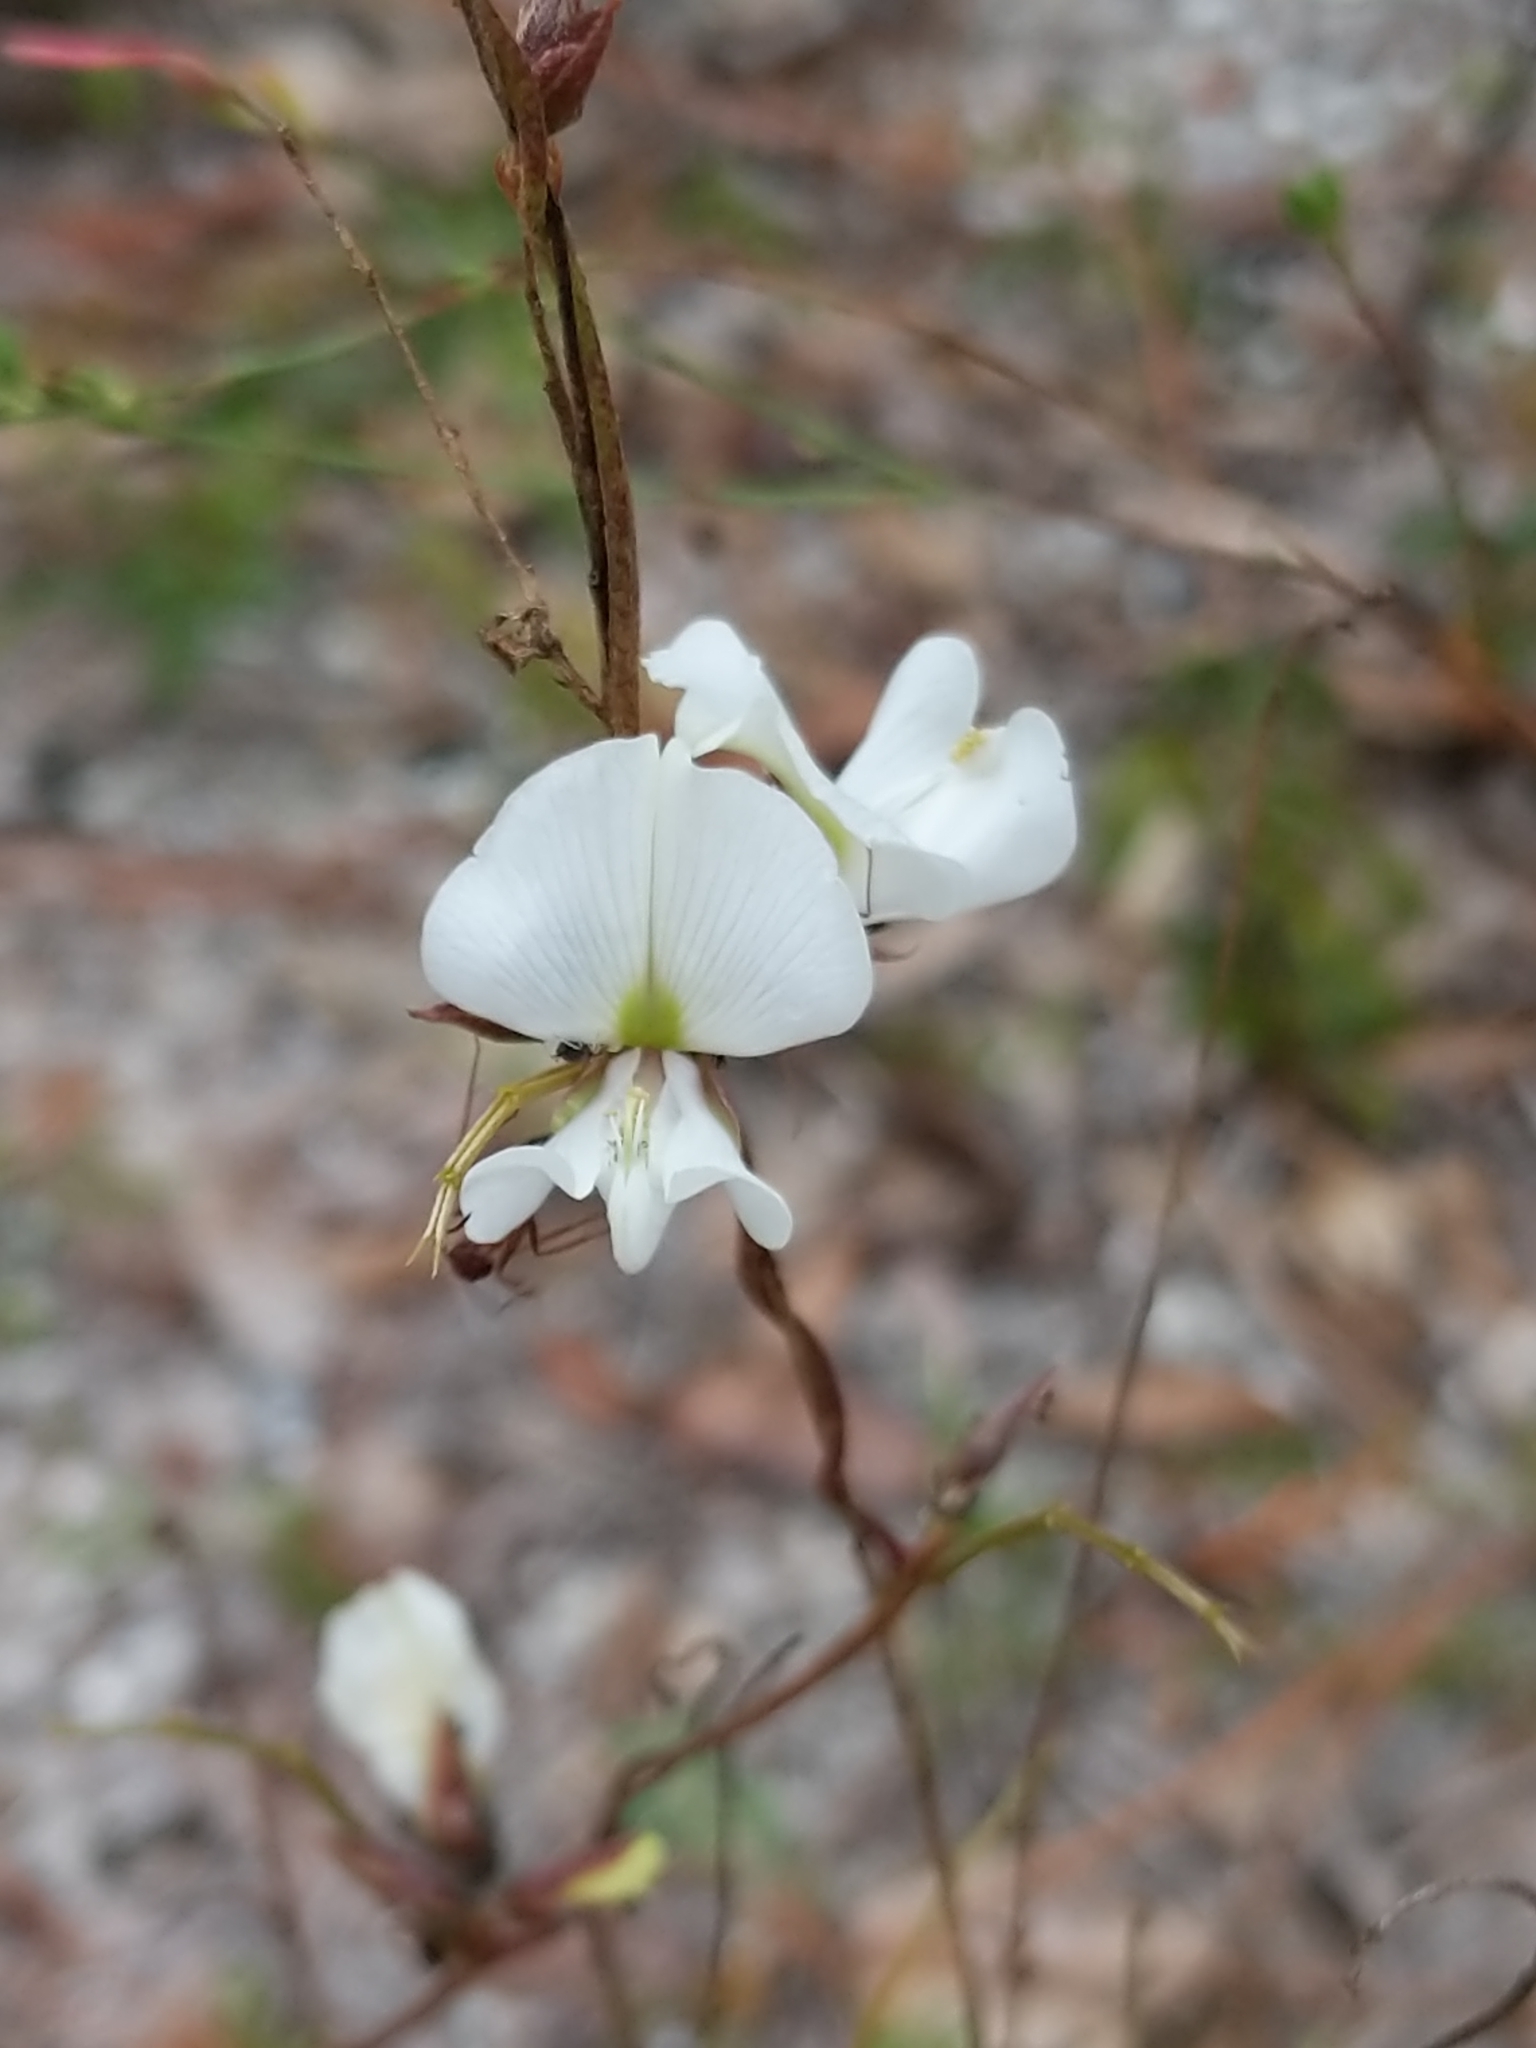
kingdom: Plantae
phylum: Tracheophyta
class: Magnoliopsida
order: Fabales
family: Fabaceae
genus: Galactia
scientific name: Galactia elliottii
